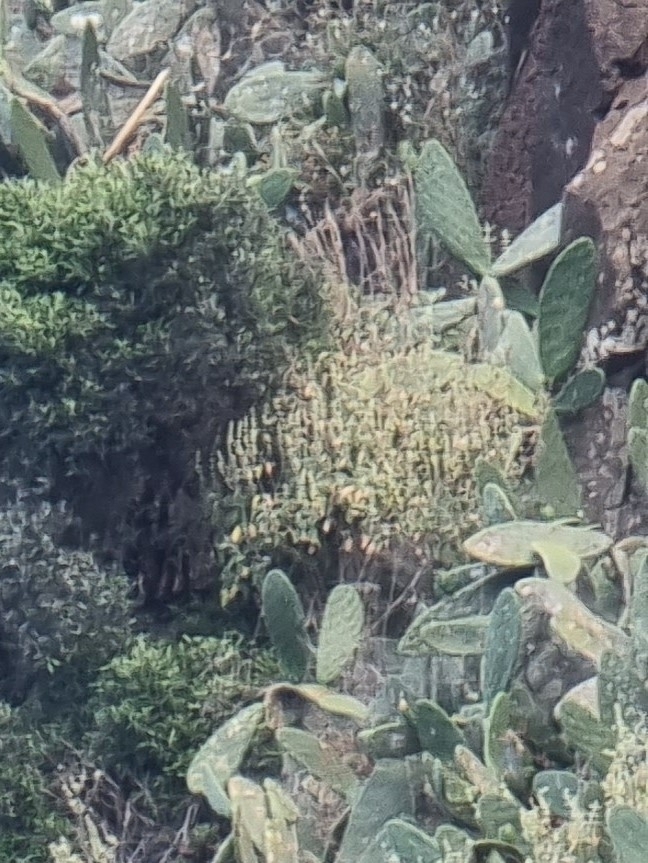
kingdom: Plantae
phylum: Tracheophyta
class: Magnoliopsida
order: Lamiales
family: Lamiaceae
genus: Sideritis
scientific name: Sideritis candicans
